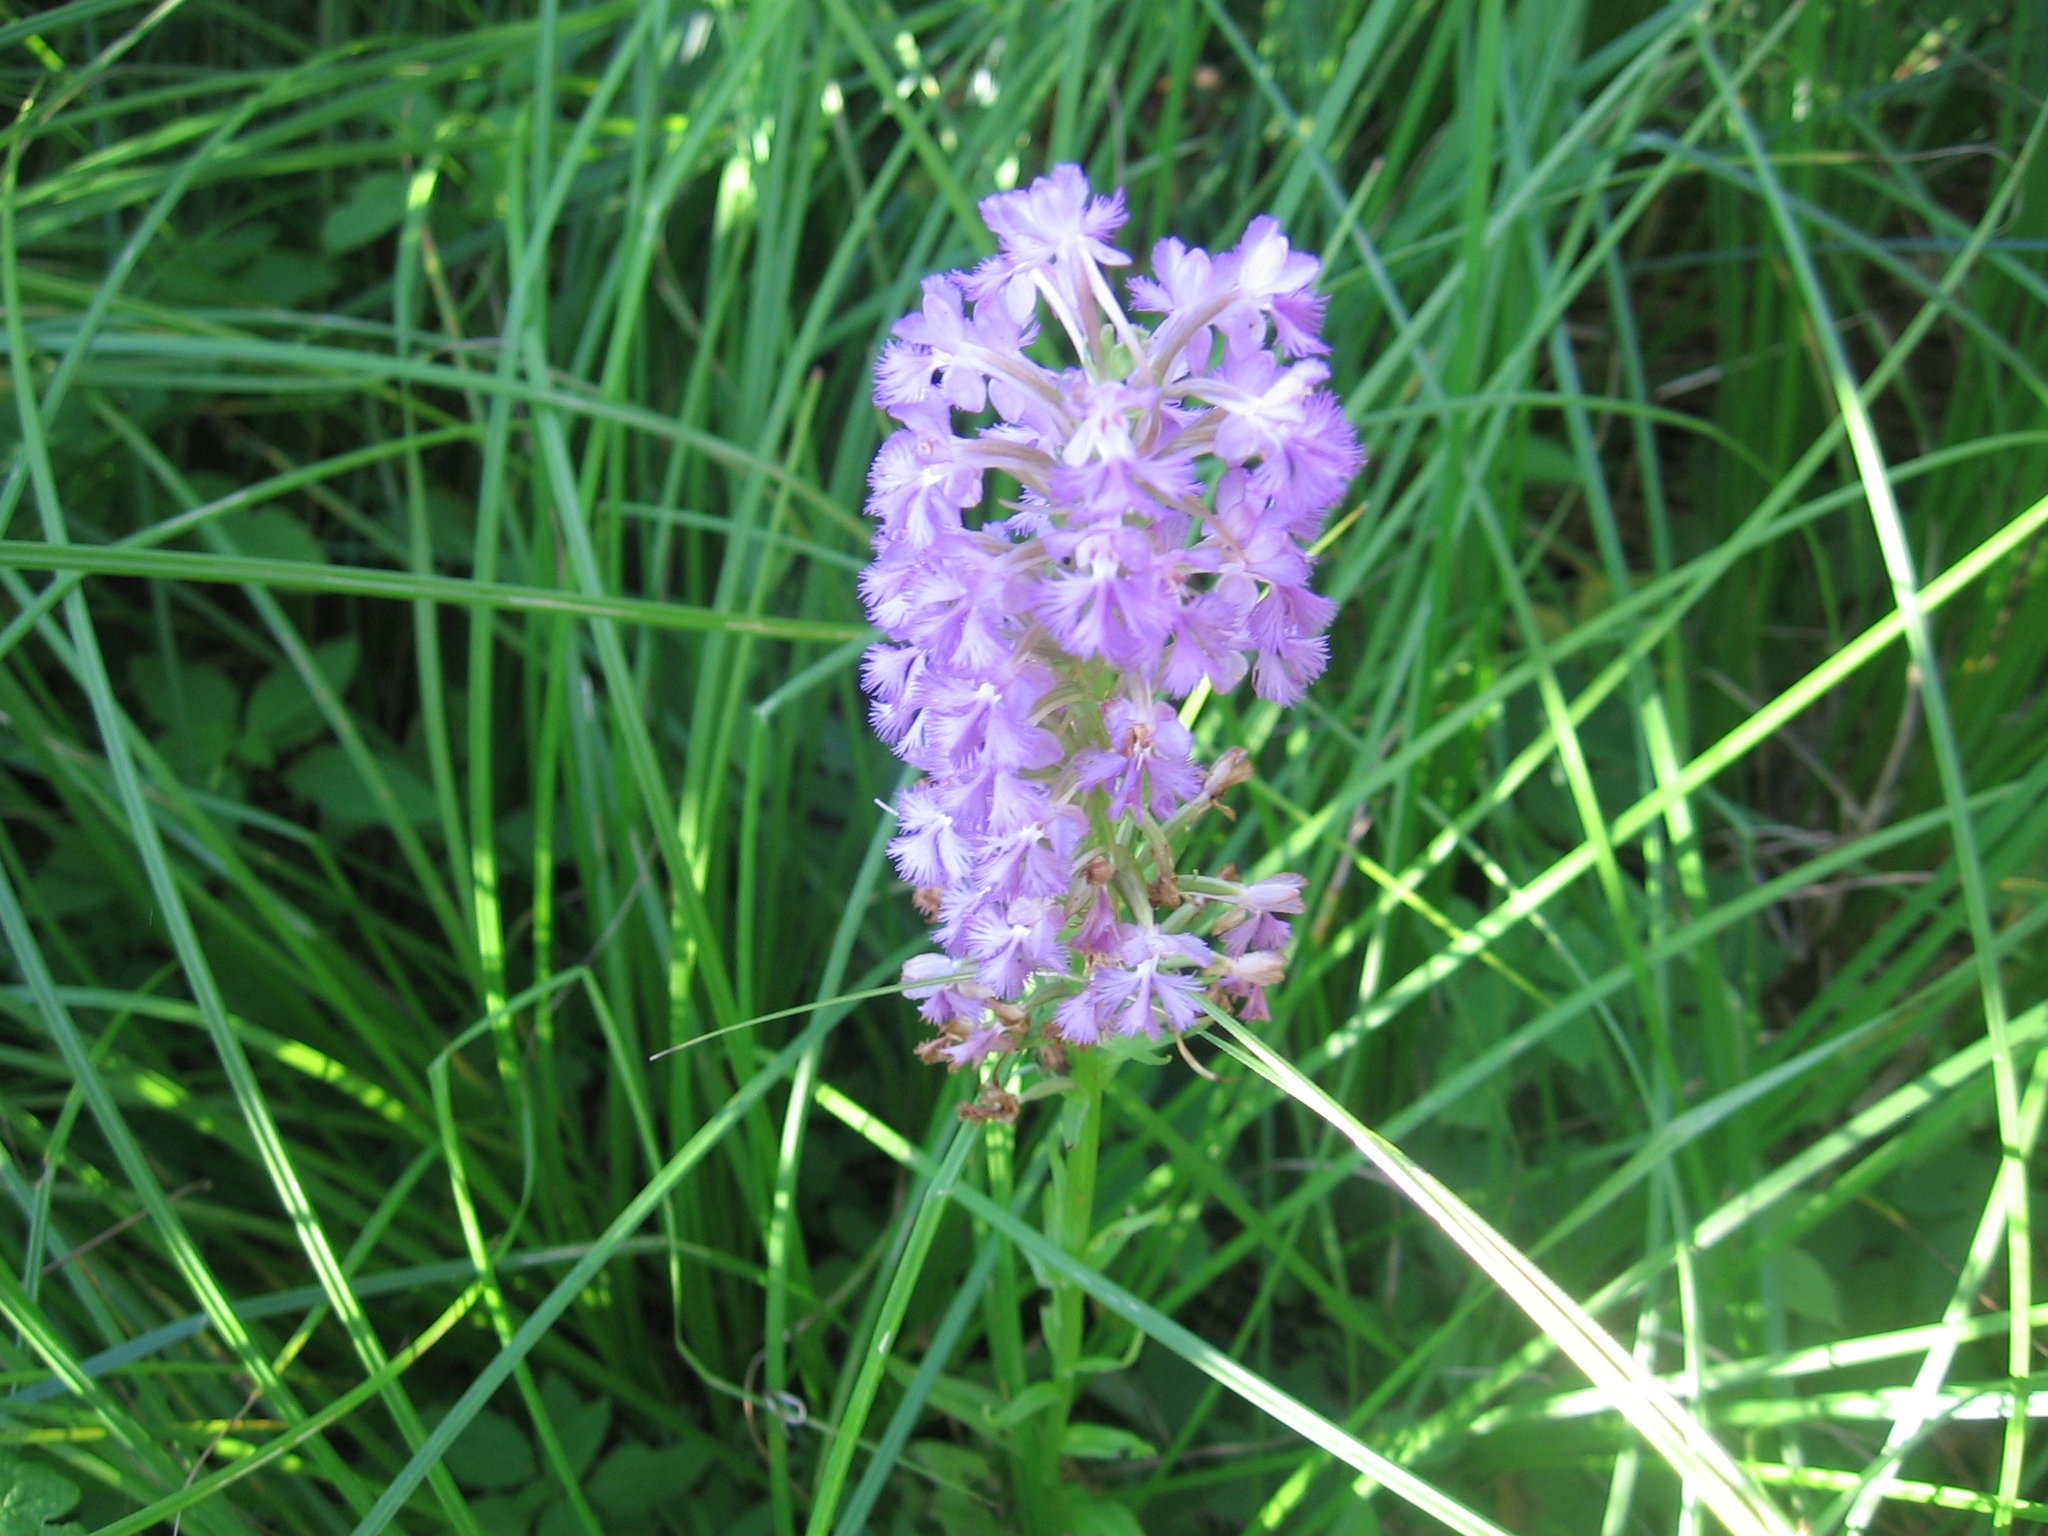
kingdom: Plantae
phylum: Tracheophyta
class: Liliopsida
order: Asparagales
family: Orchidaceae
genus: Platanthera
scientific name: Platanthera psycodes
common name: Lesser purple fringed orchid
